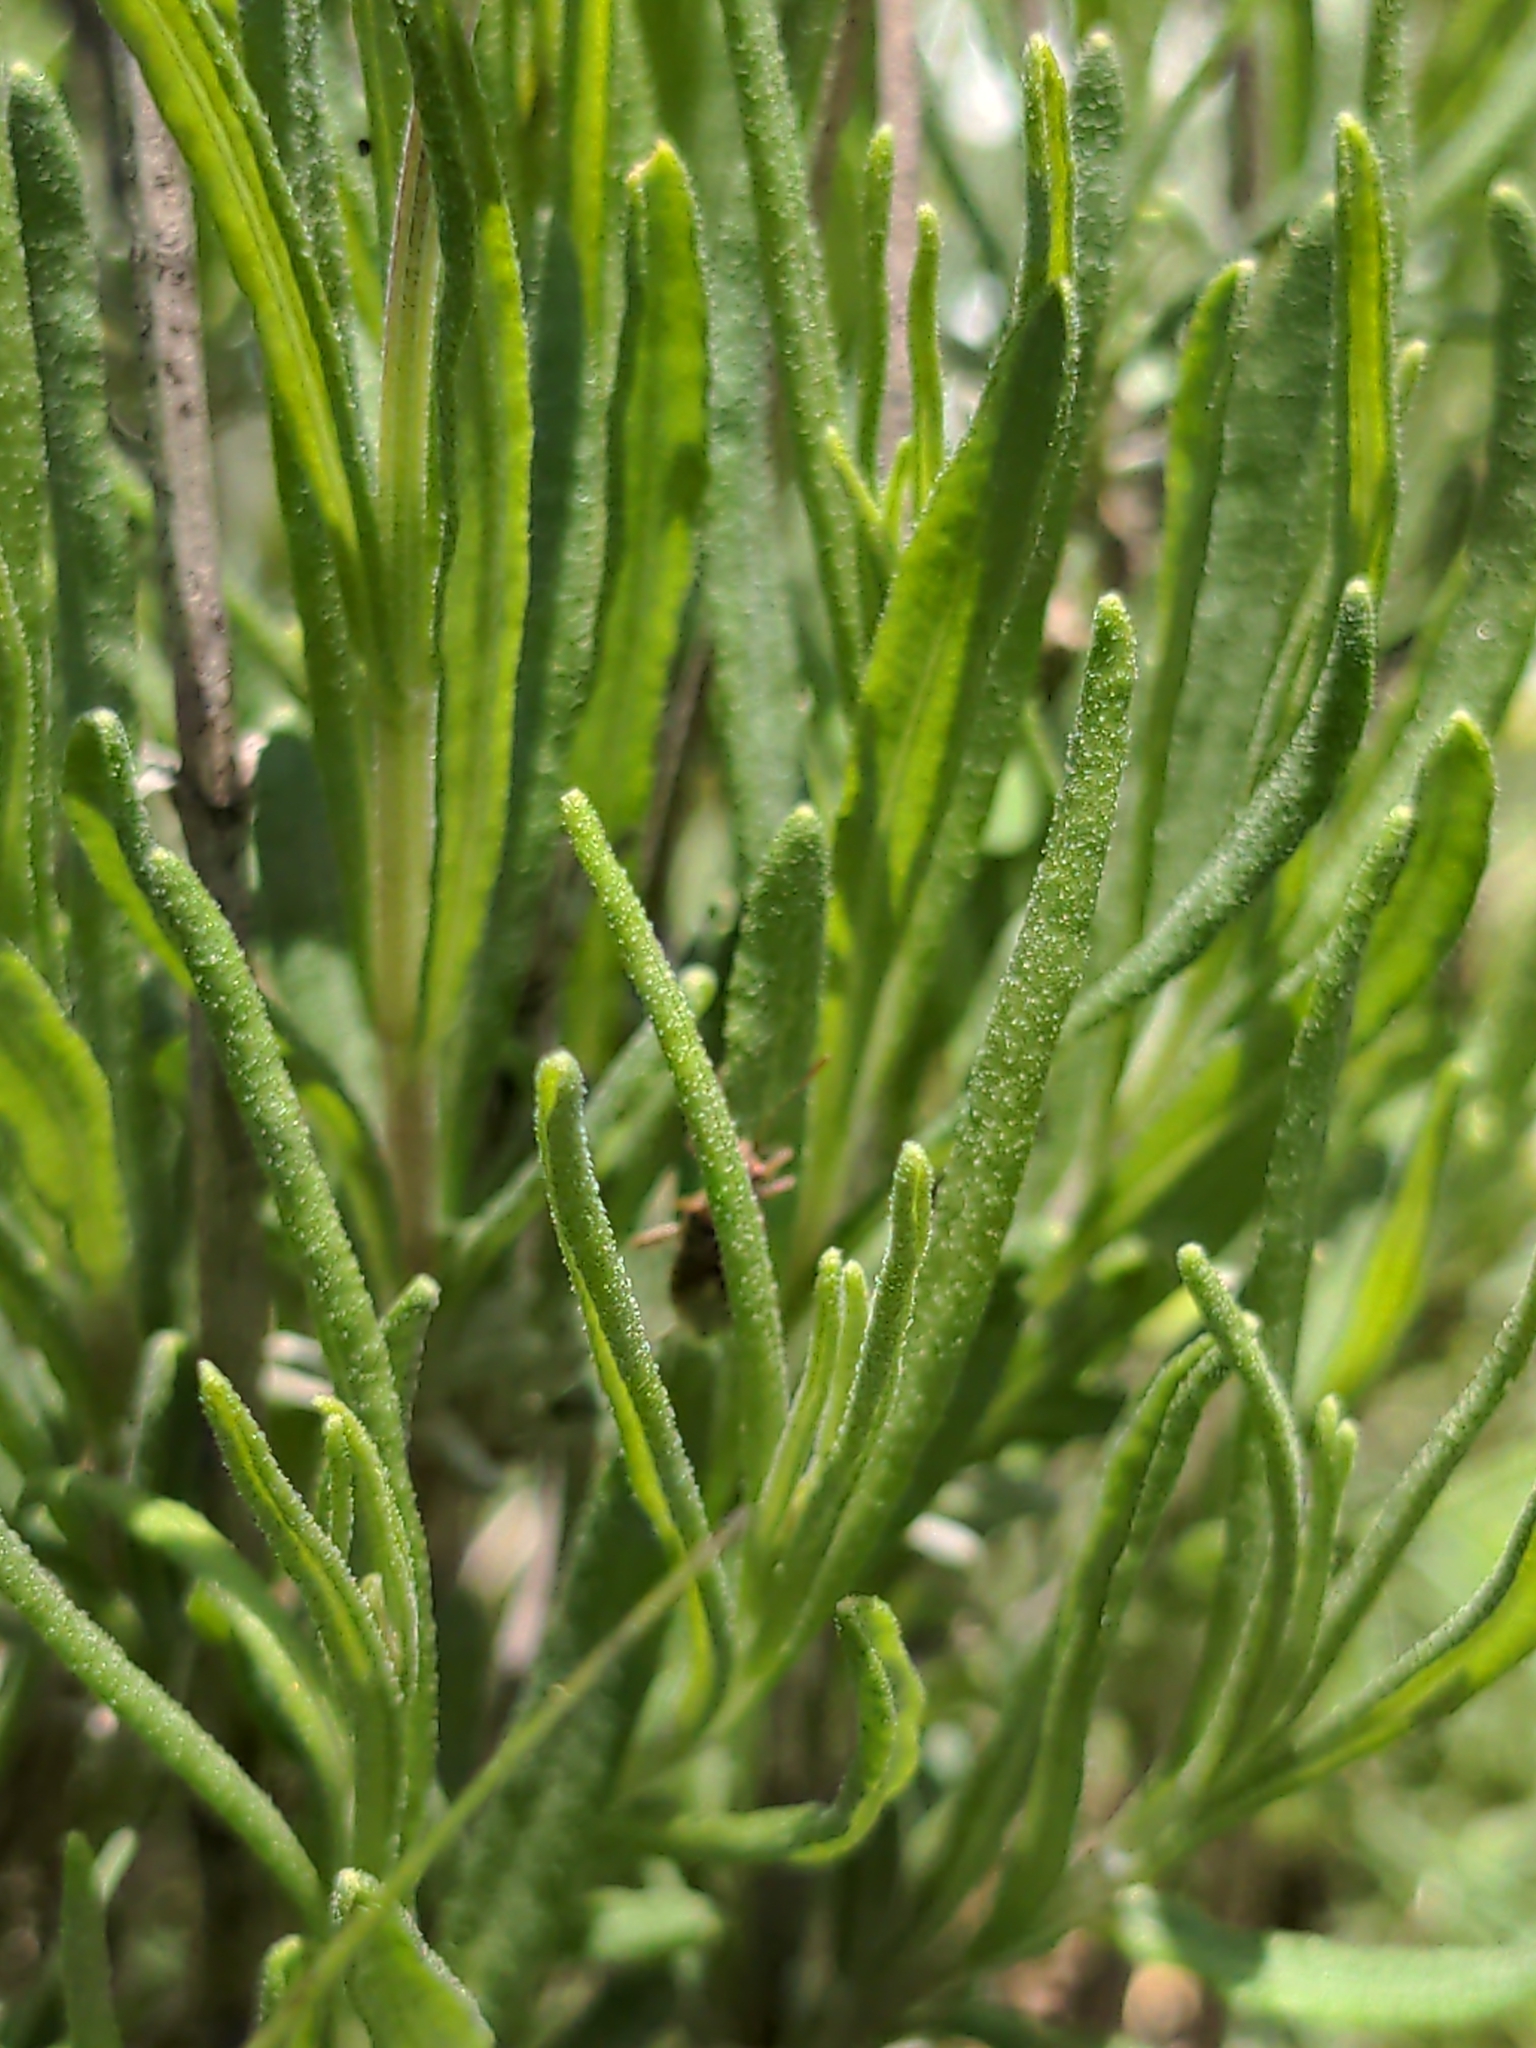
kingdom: Plantae
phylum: Tracheophyta
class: Magnoliopsida
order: Lamiales
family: Lamiaceae
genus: Lavandula
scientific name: Lavandula angustifolia
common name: Garden lavender
